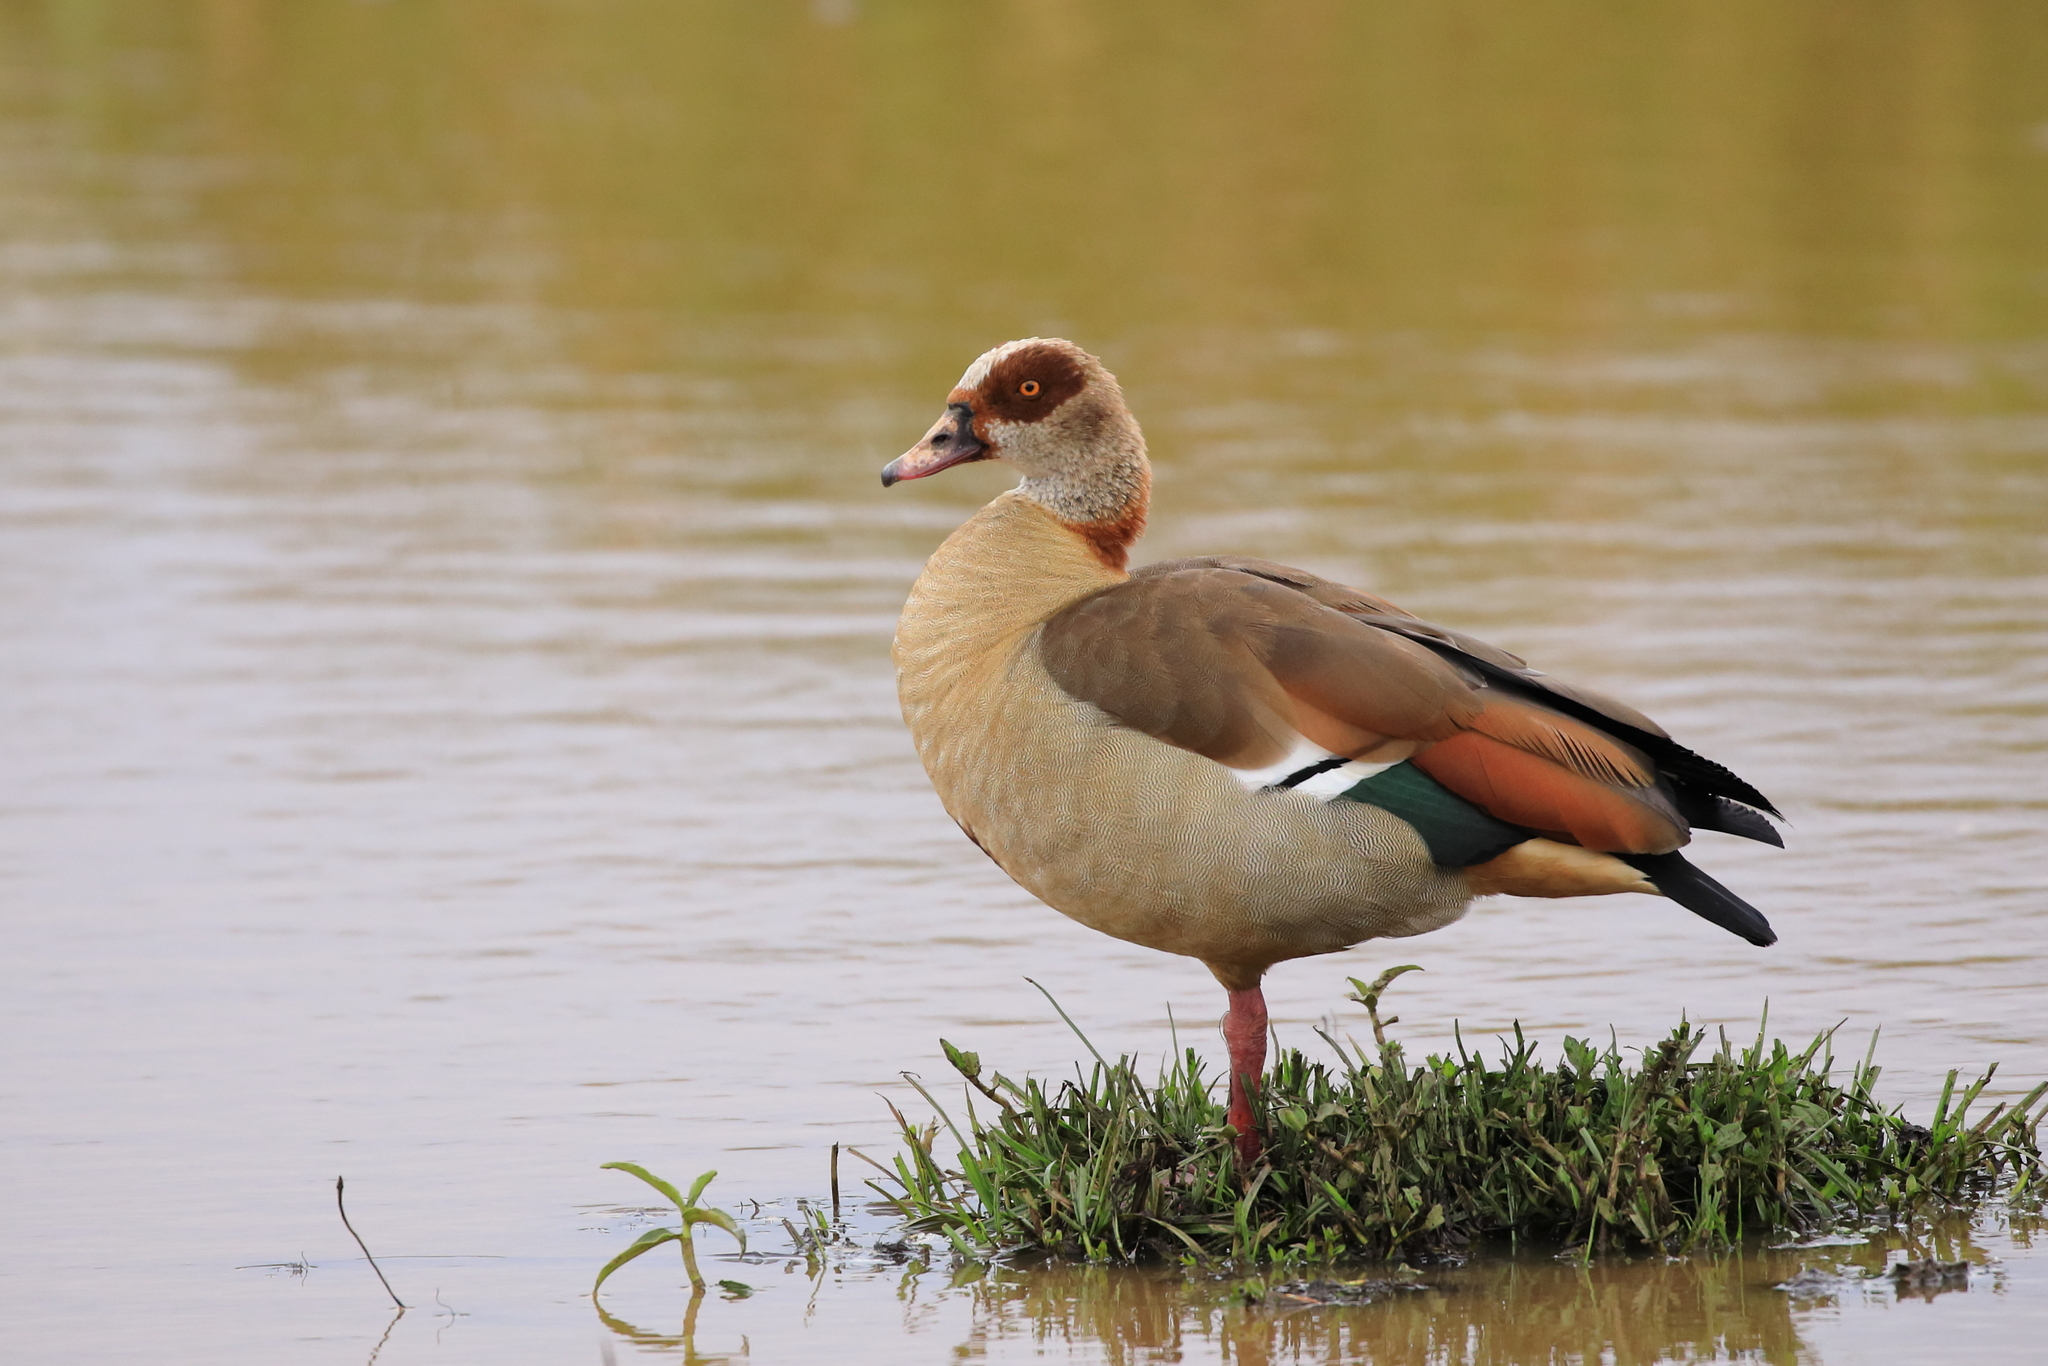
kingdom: Animalia
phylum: Chordata
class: Aves
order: Anseriformes
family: Anatidae
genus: Alopochen
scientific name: Alopochen aegyptiaca
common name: Egyptian goose
